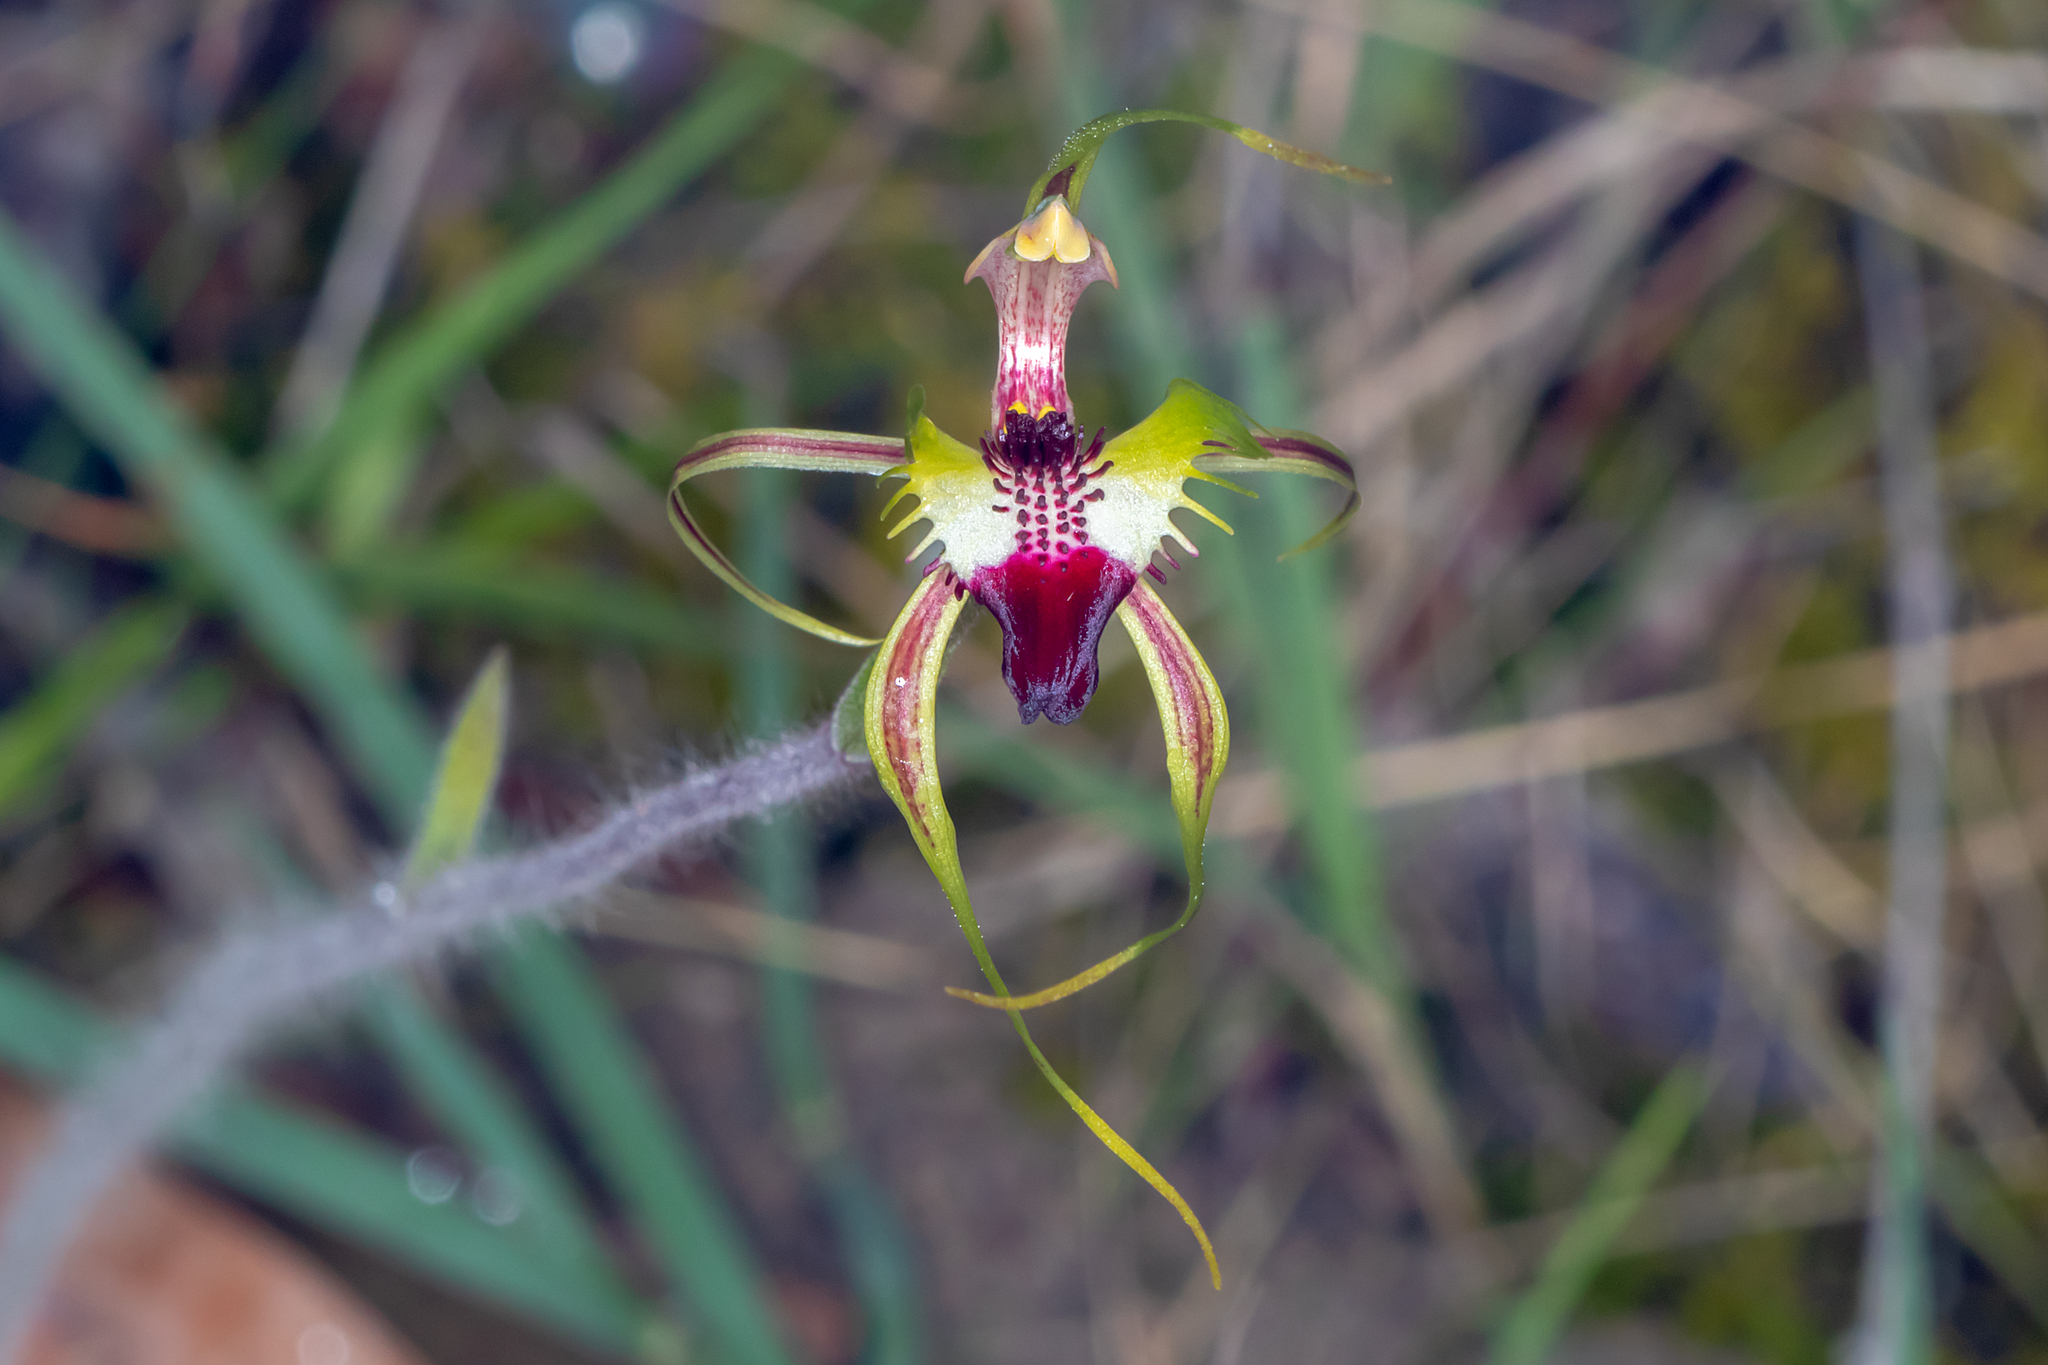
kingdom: Plantae
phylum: Tracheophyta
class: Liliopsida
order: Asparagales
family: Orchidaceae
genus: Caladenia
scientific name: Caladenia parva
